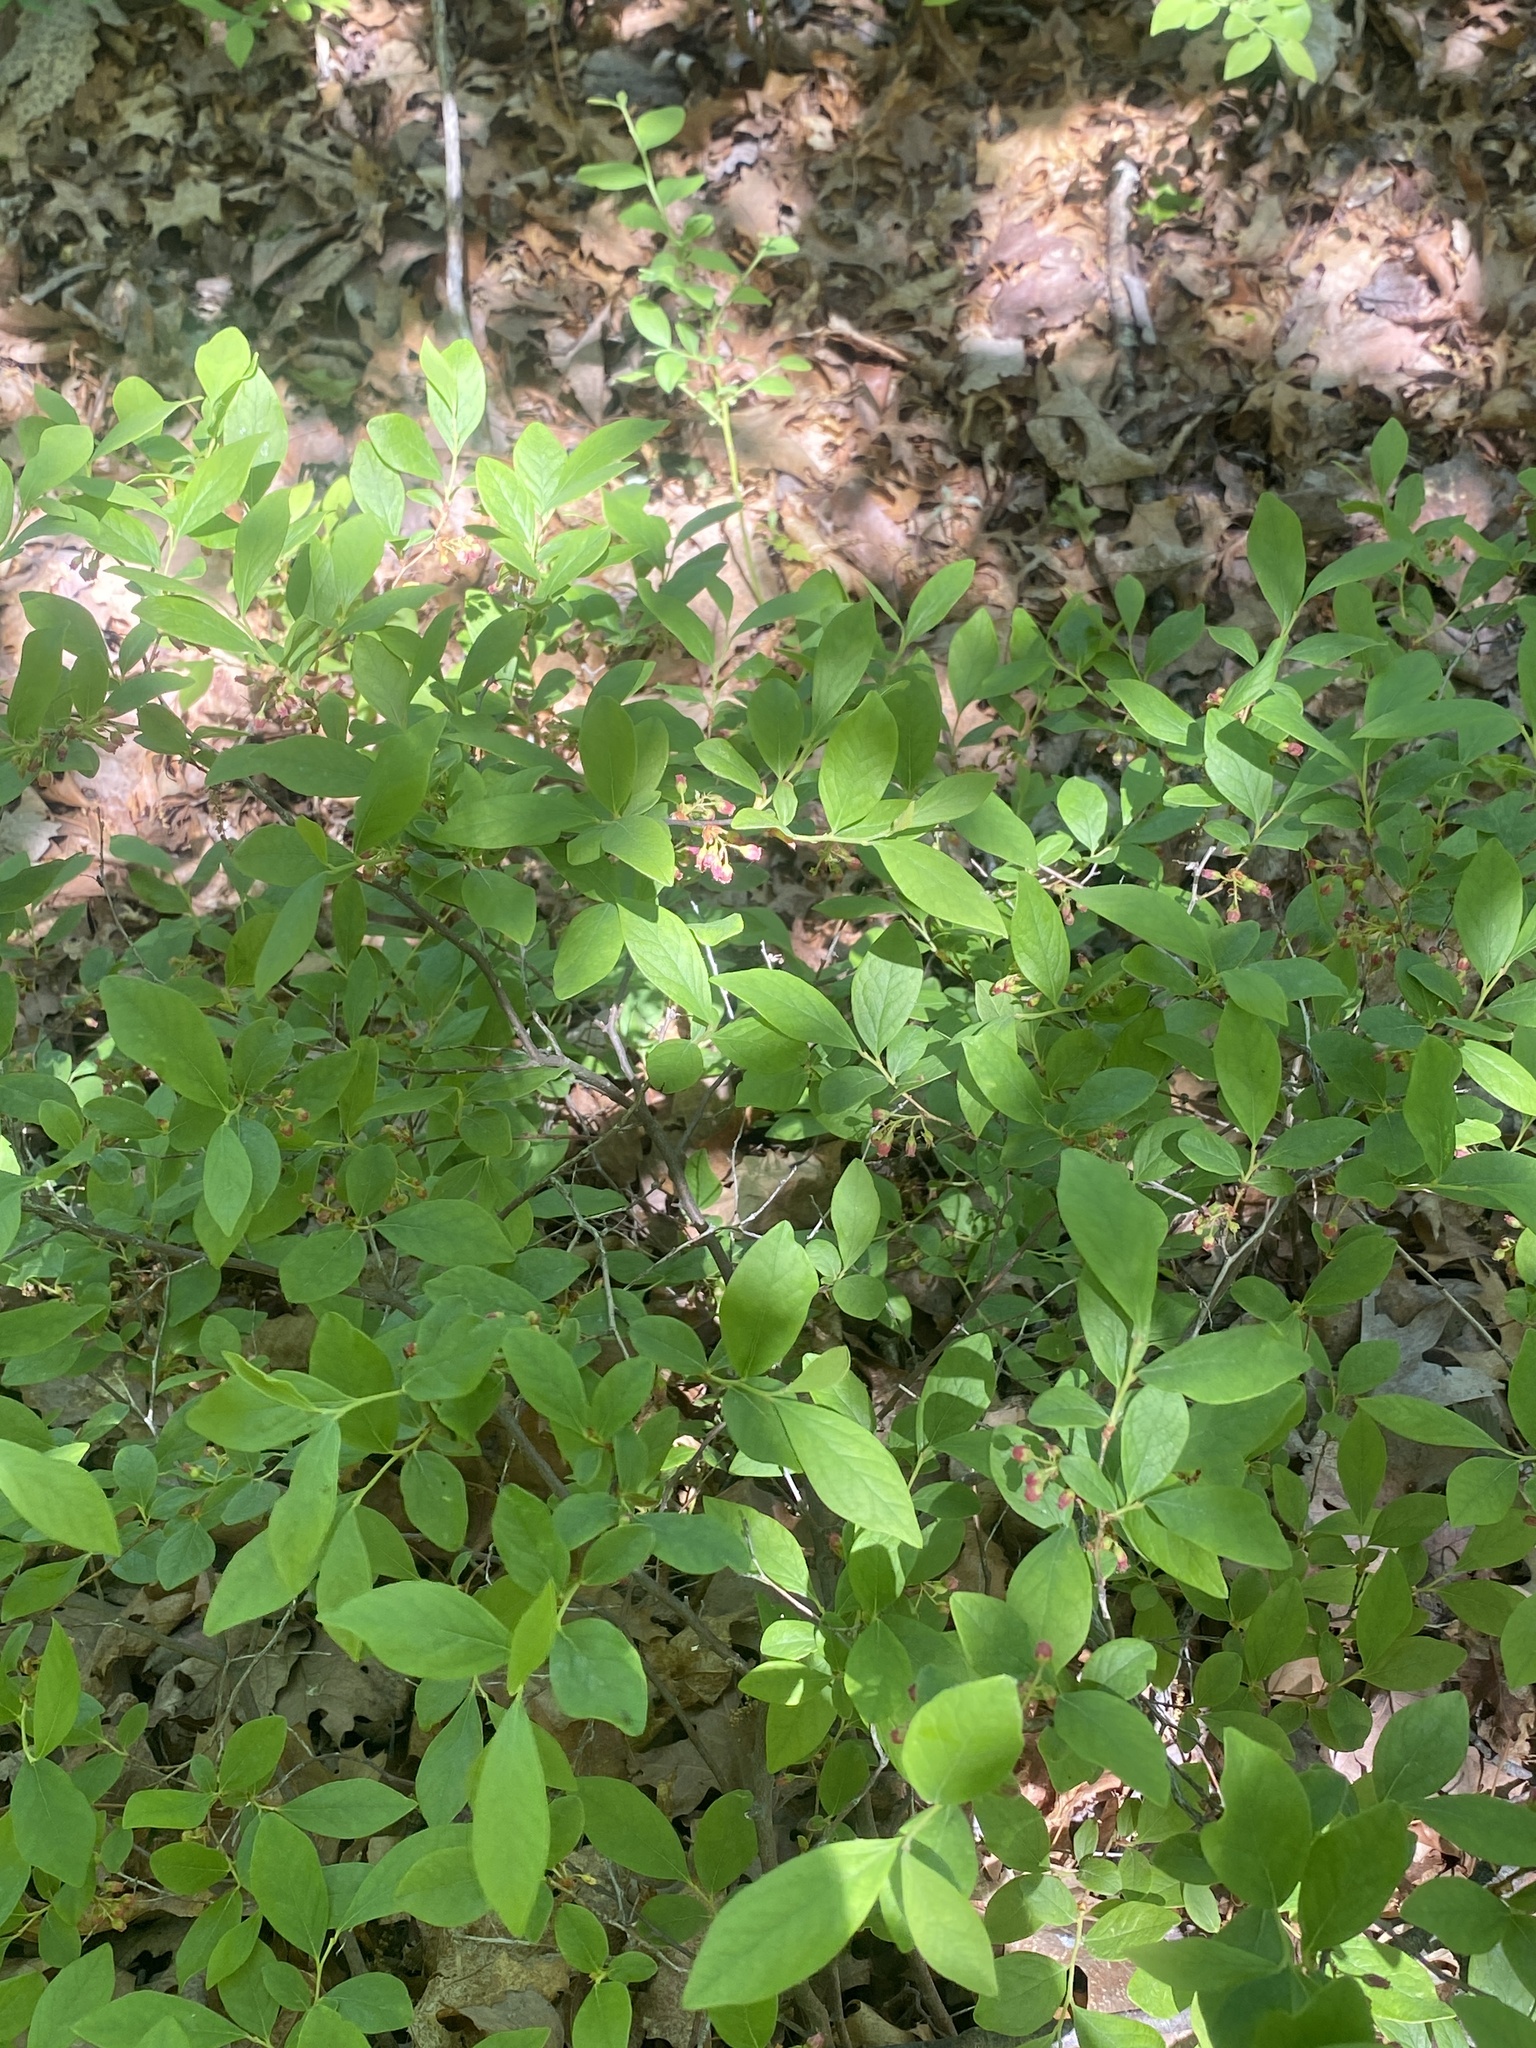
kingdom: Plantae
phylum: Tracheophyta
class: Magnoliopsida
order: Ericales
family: Ericaceae
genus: Gaylussacia
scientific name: Gaylussacia baccata
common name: Black huckleberry
